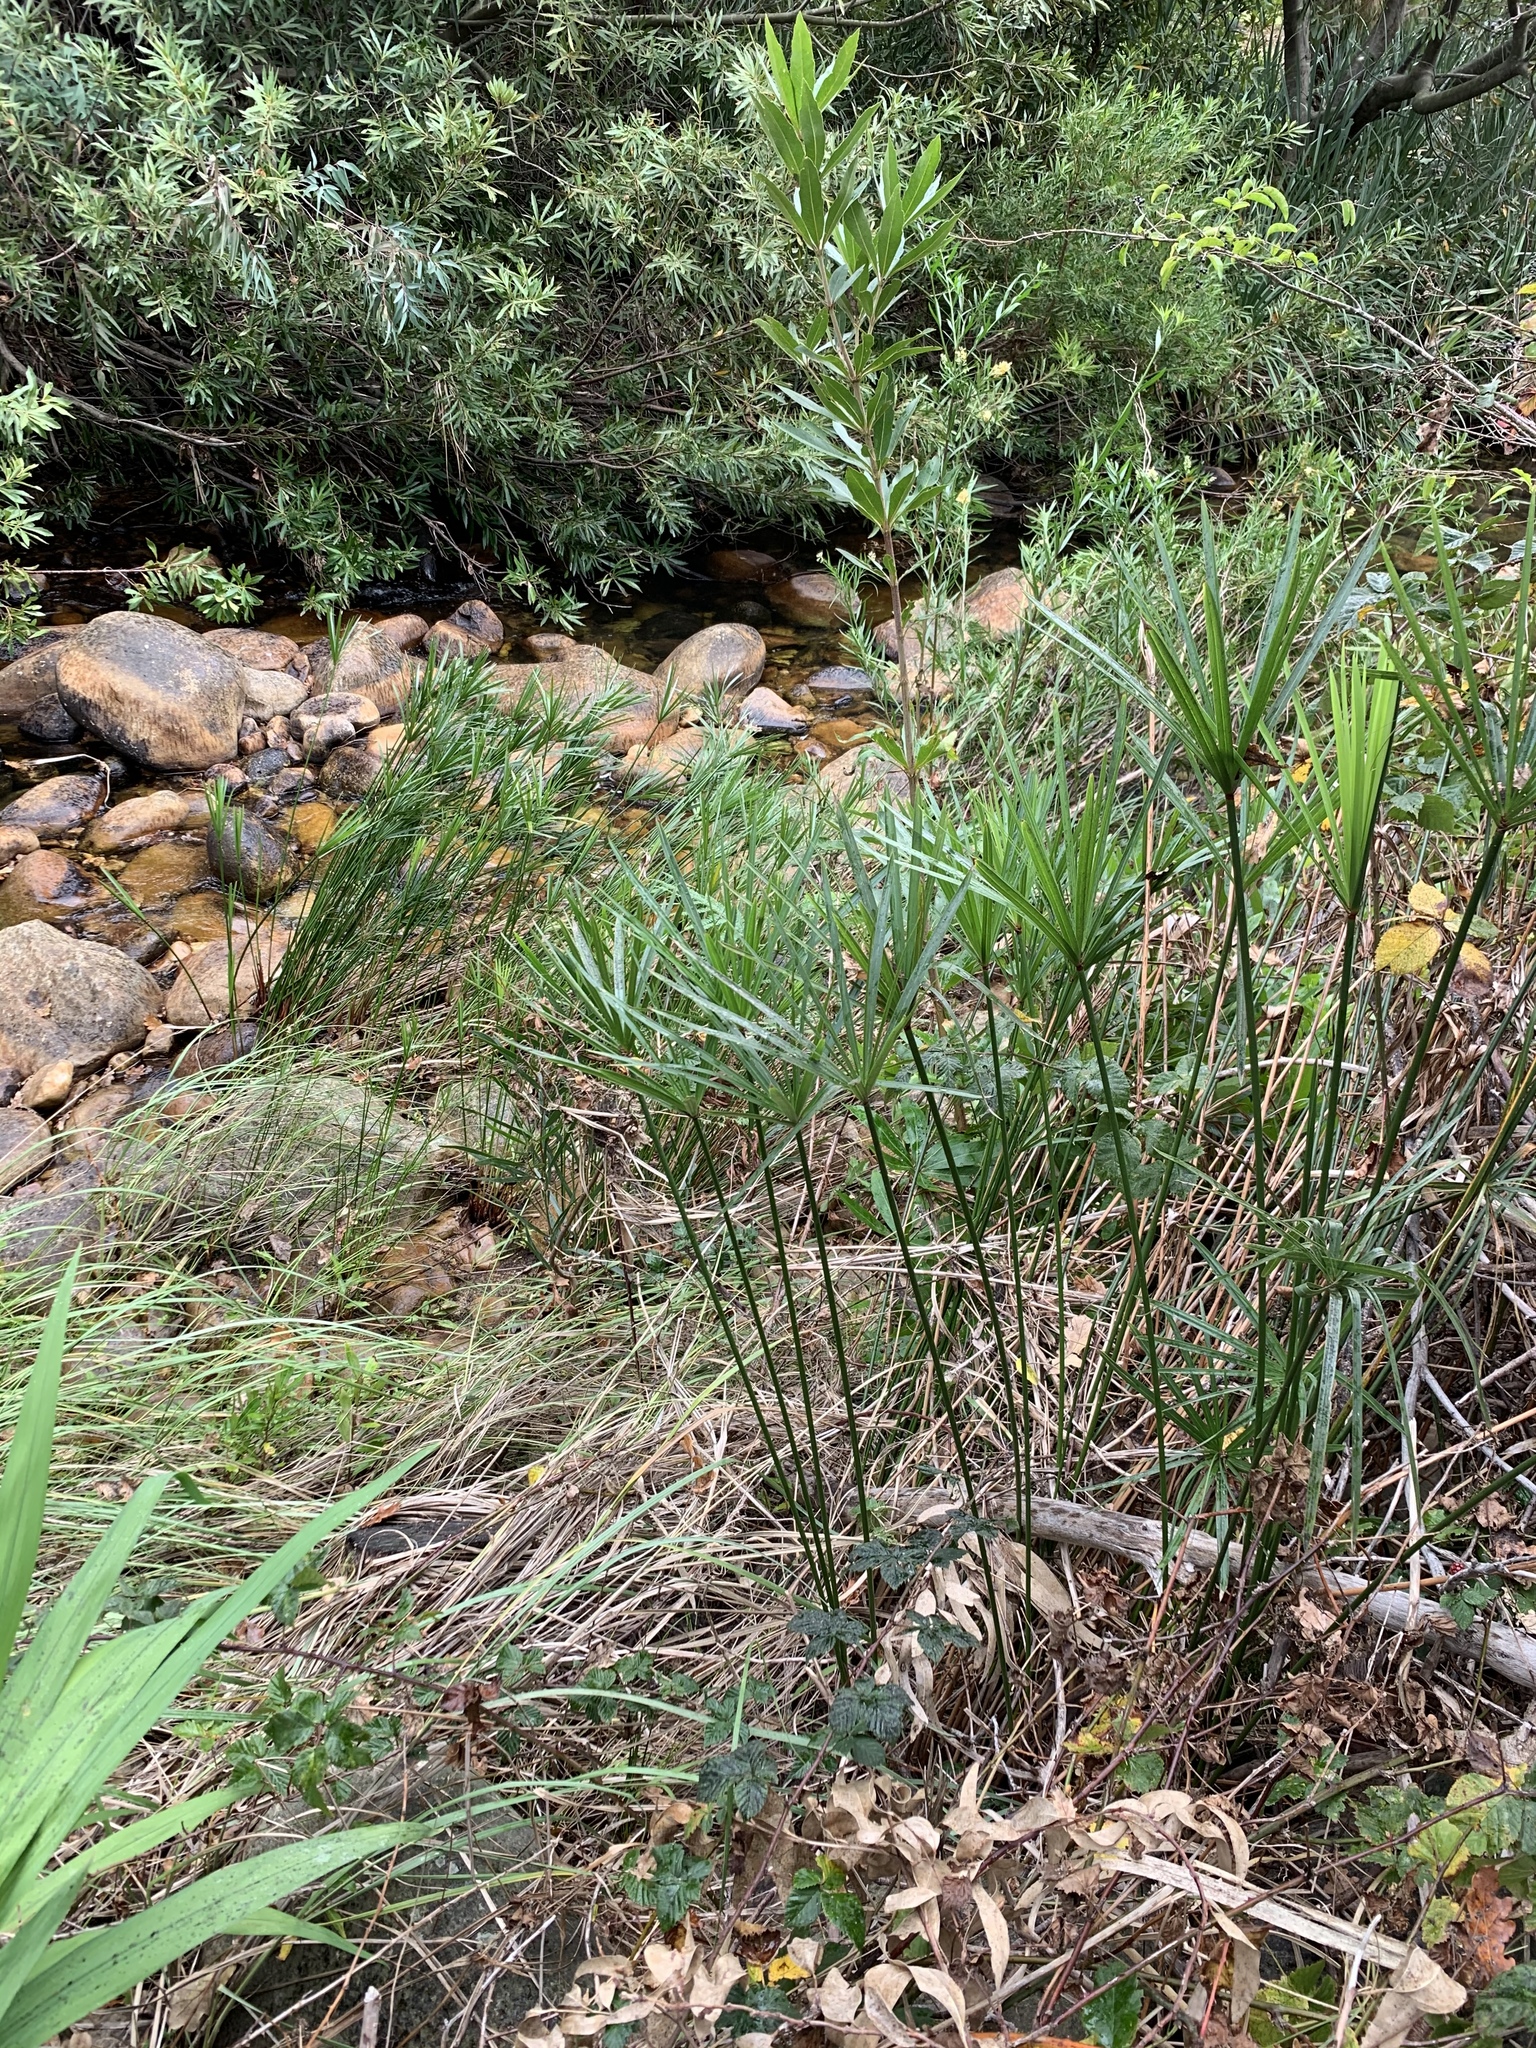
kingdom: Plantae
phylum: Tracheophyta
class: Liliopsida
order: Poales
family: Cyperaceae
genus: Cyperus
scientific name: Cyperus textilis
